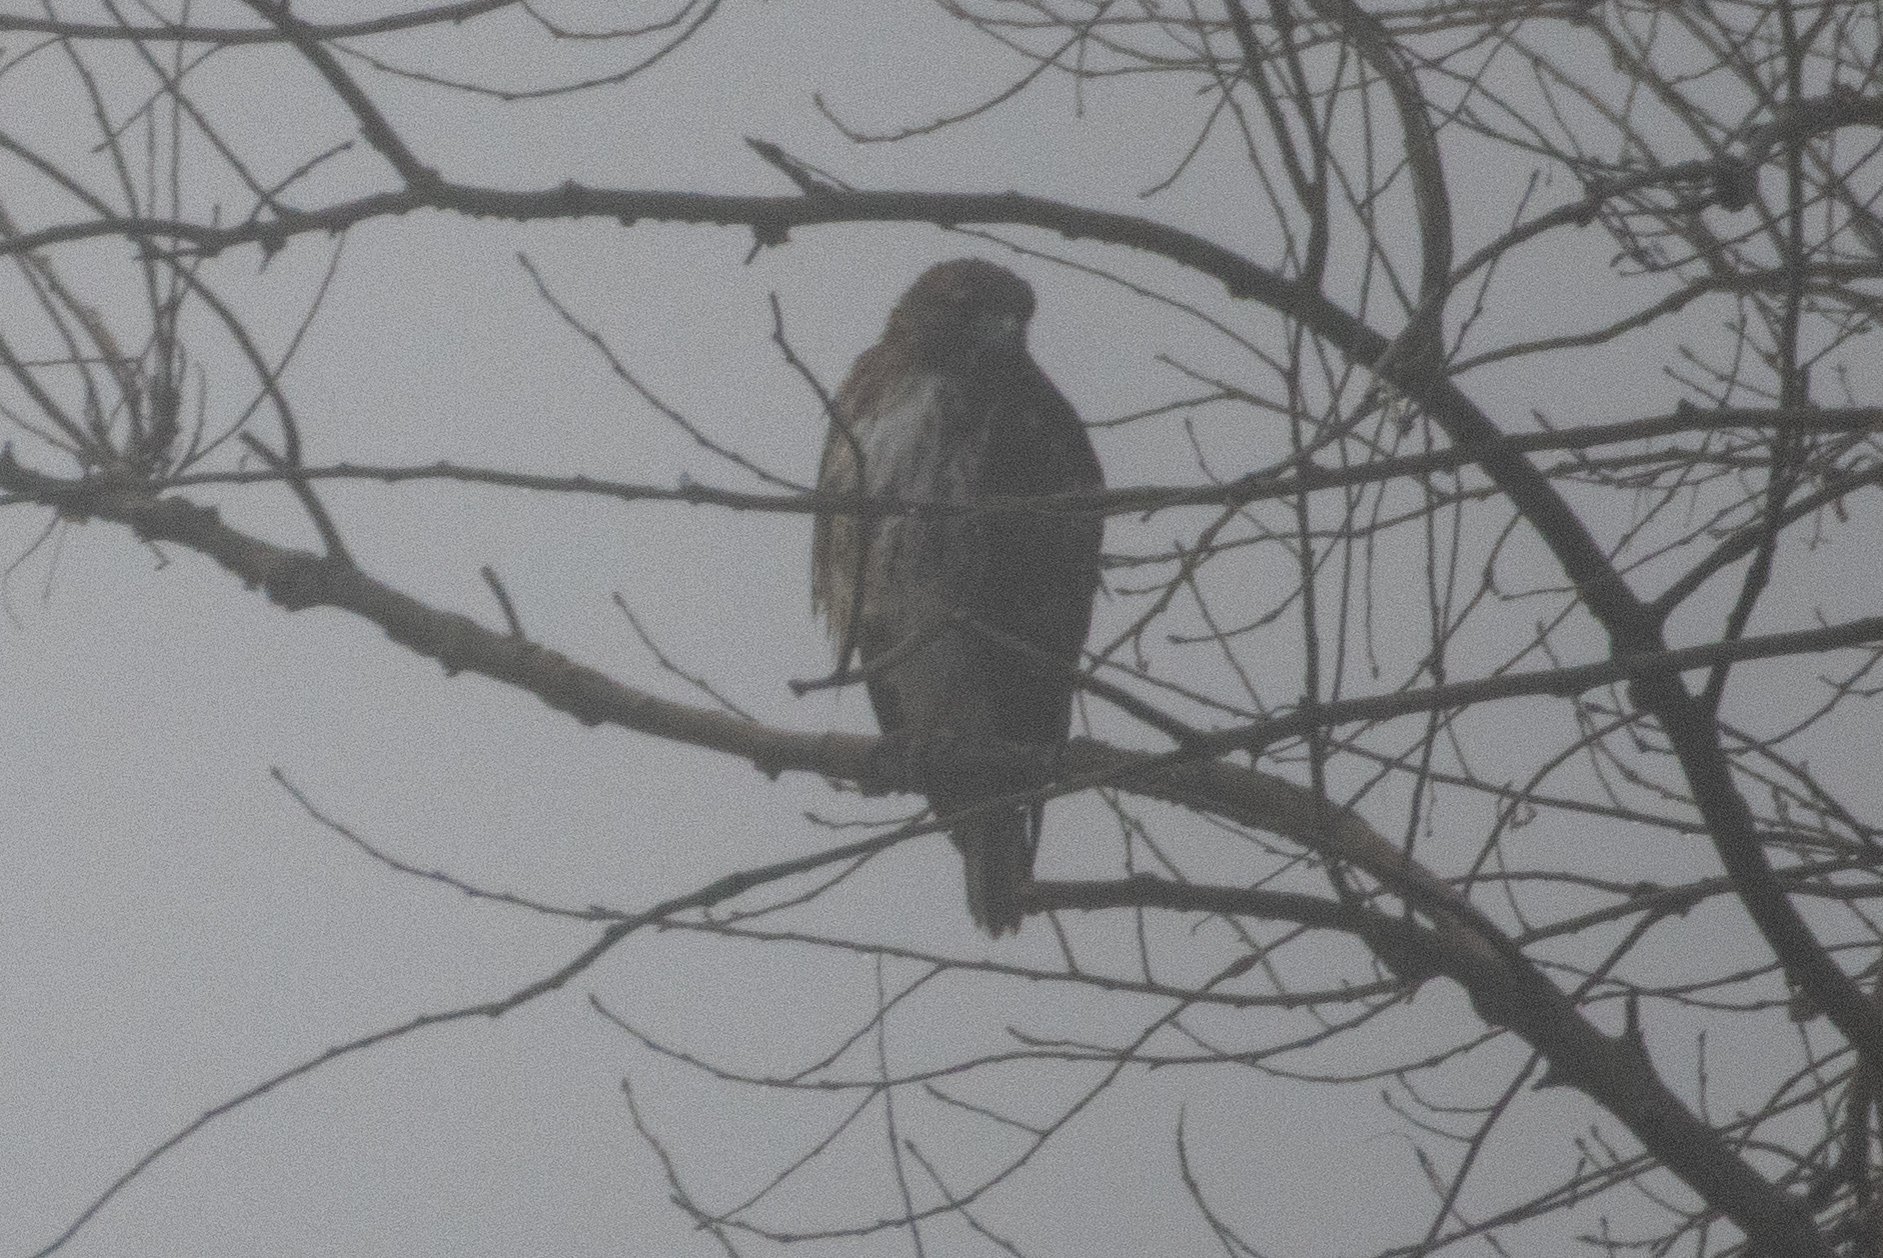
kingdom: Animalia
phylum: Chordata
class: Aves
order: Accipitriformes
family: Accipitridae
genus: Buteo
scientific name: Buteo jamaicensis
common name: Red-tailed hawk
